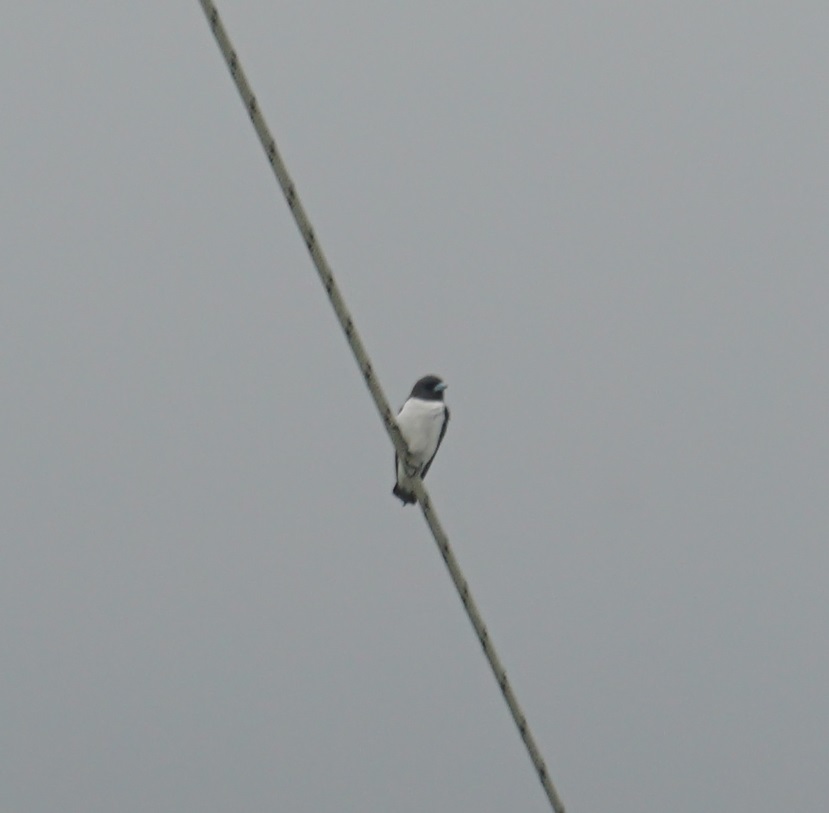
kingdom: Animalia
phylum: Chordata
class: Aves
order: Passeriformes
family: Artamidae
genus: Artamus
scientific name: Artamus leucoryn
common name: White-breasted woodswallow
